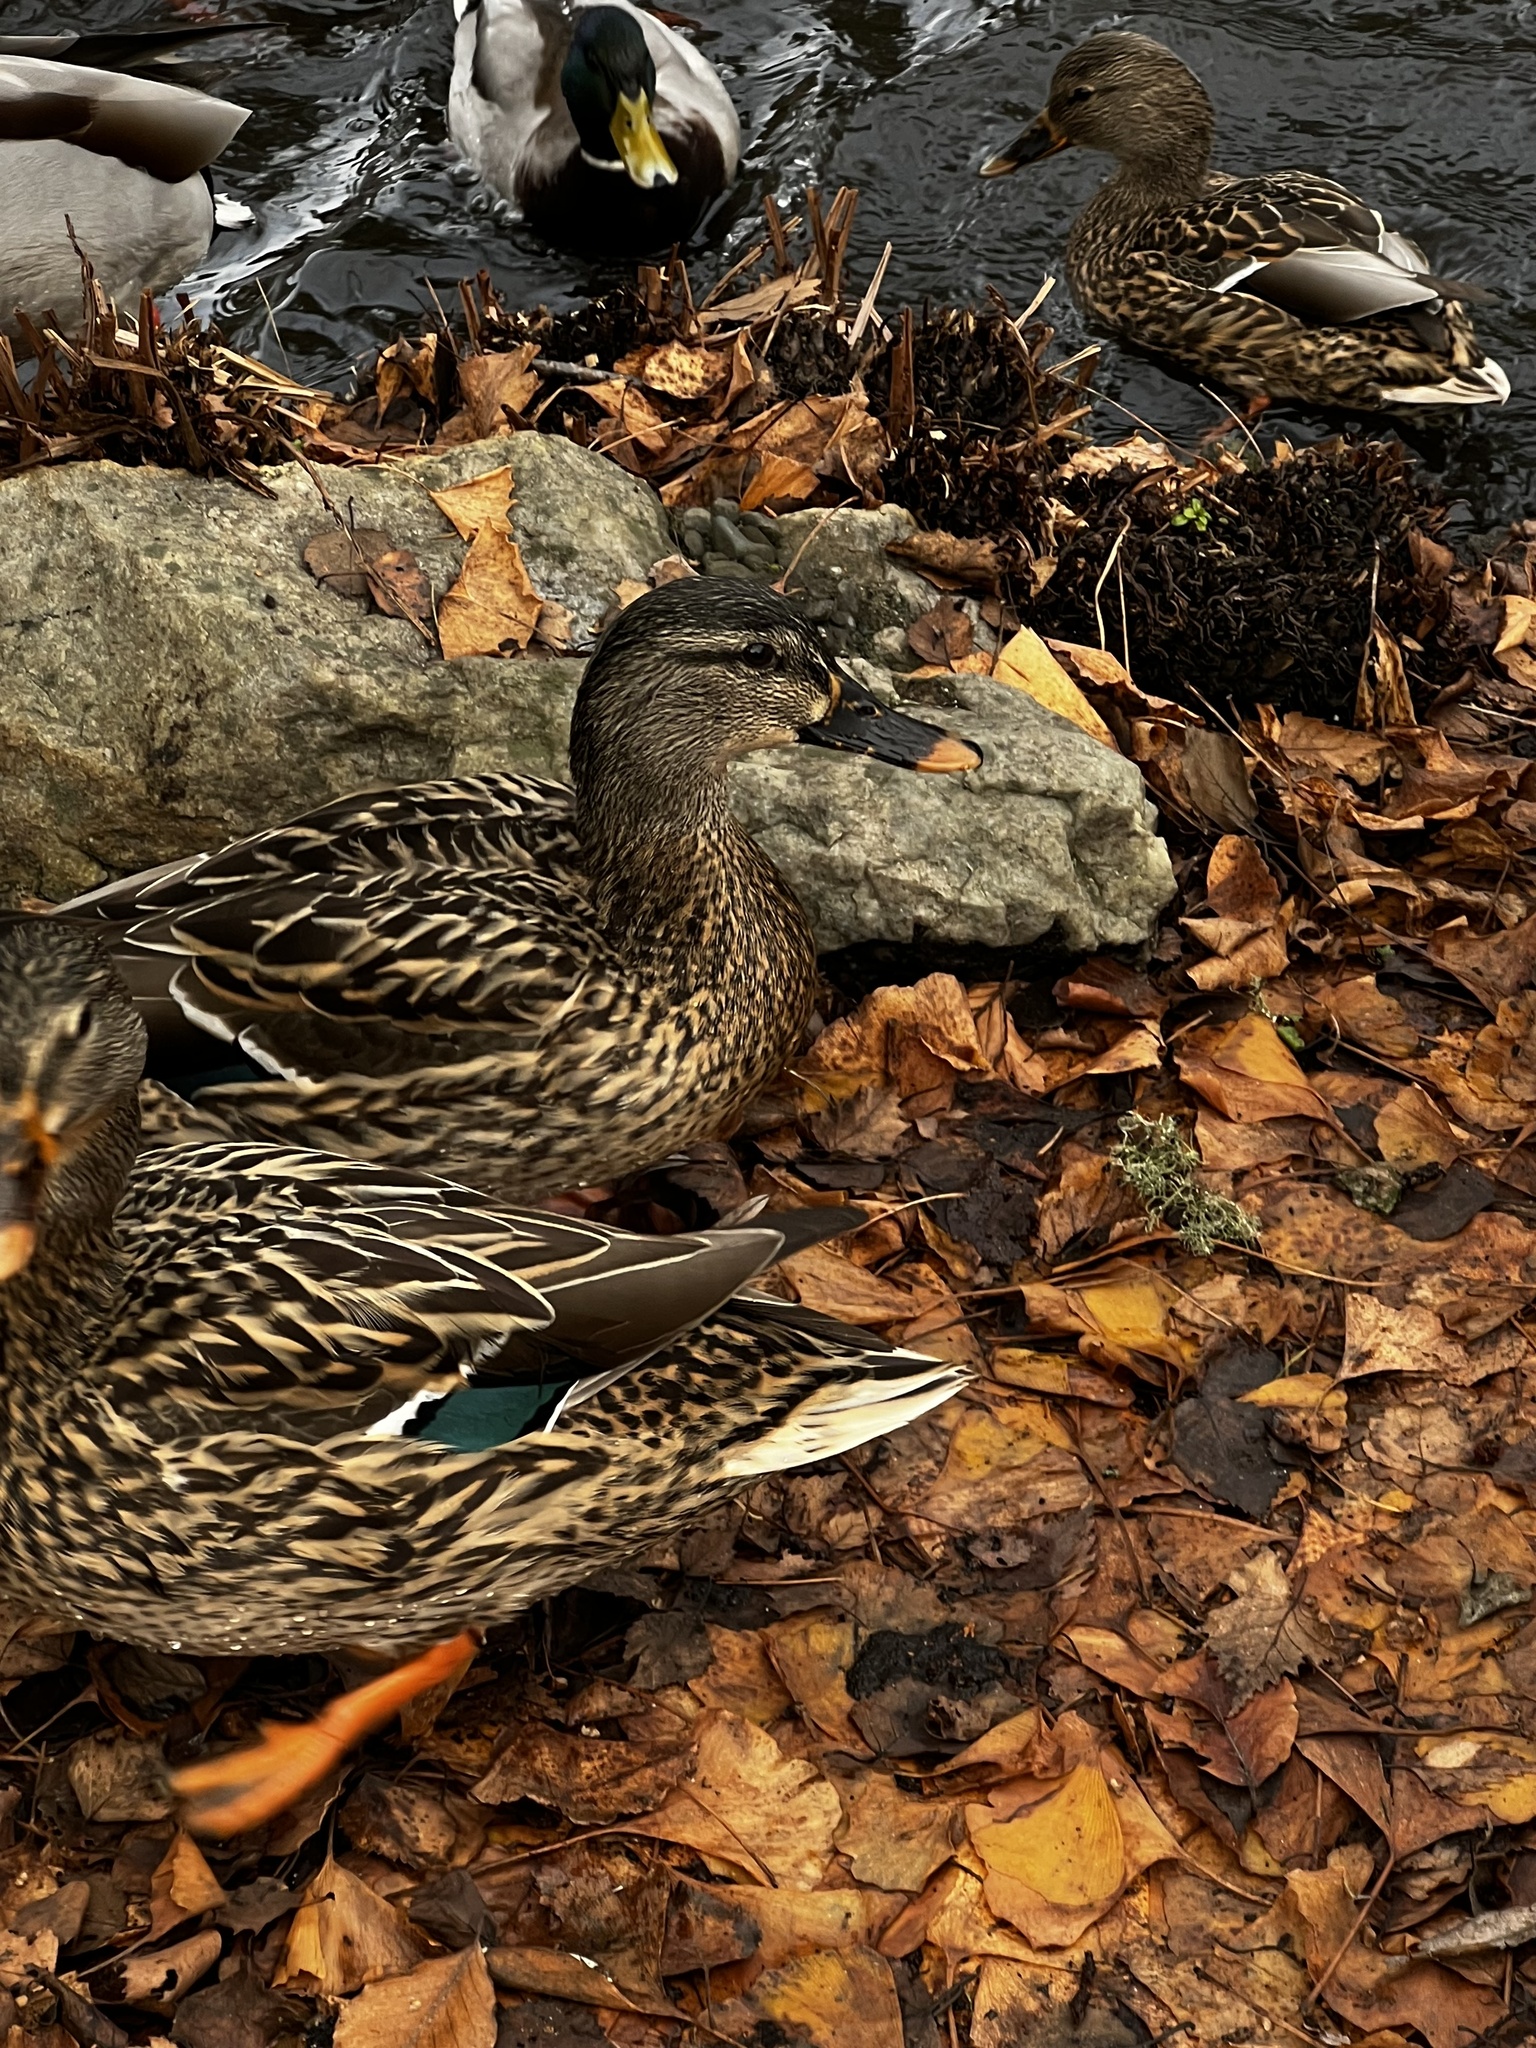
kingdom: Animalia
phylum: Chordata
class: Aves
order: Anseriformes
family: Anatidae
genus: Anas
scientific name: Anas platyrhynchos
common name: Mallard
